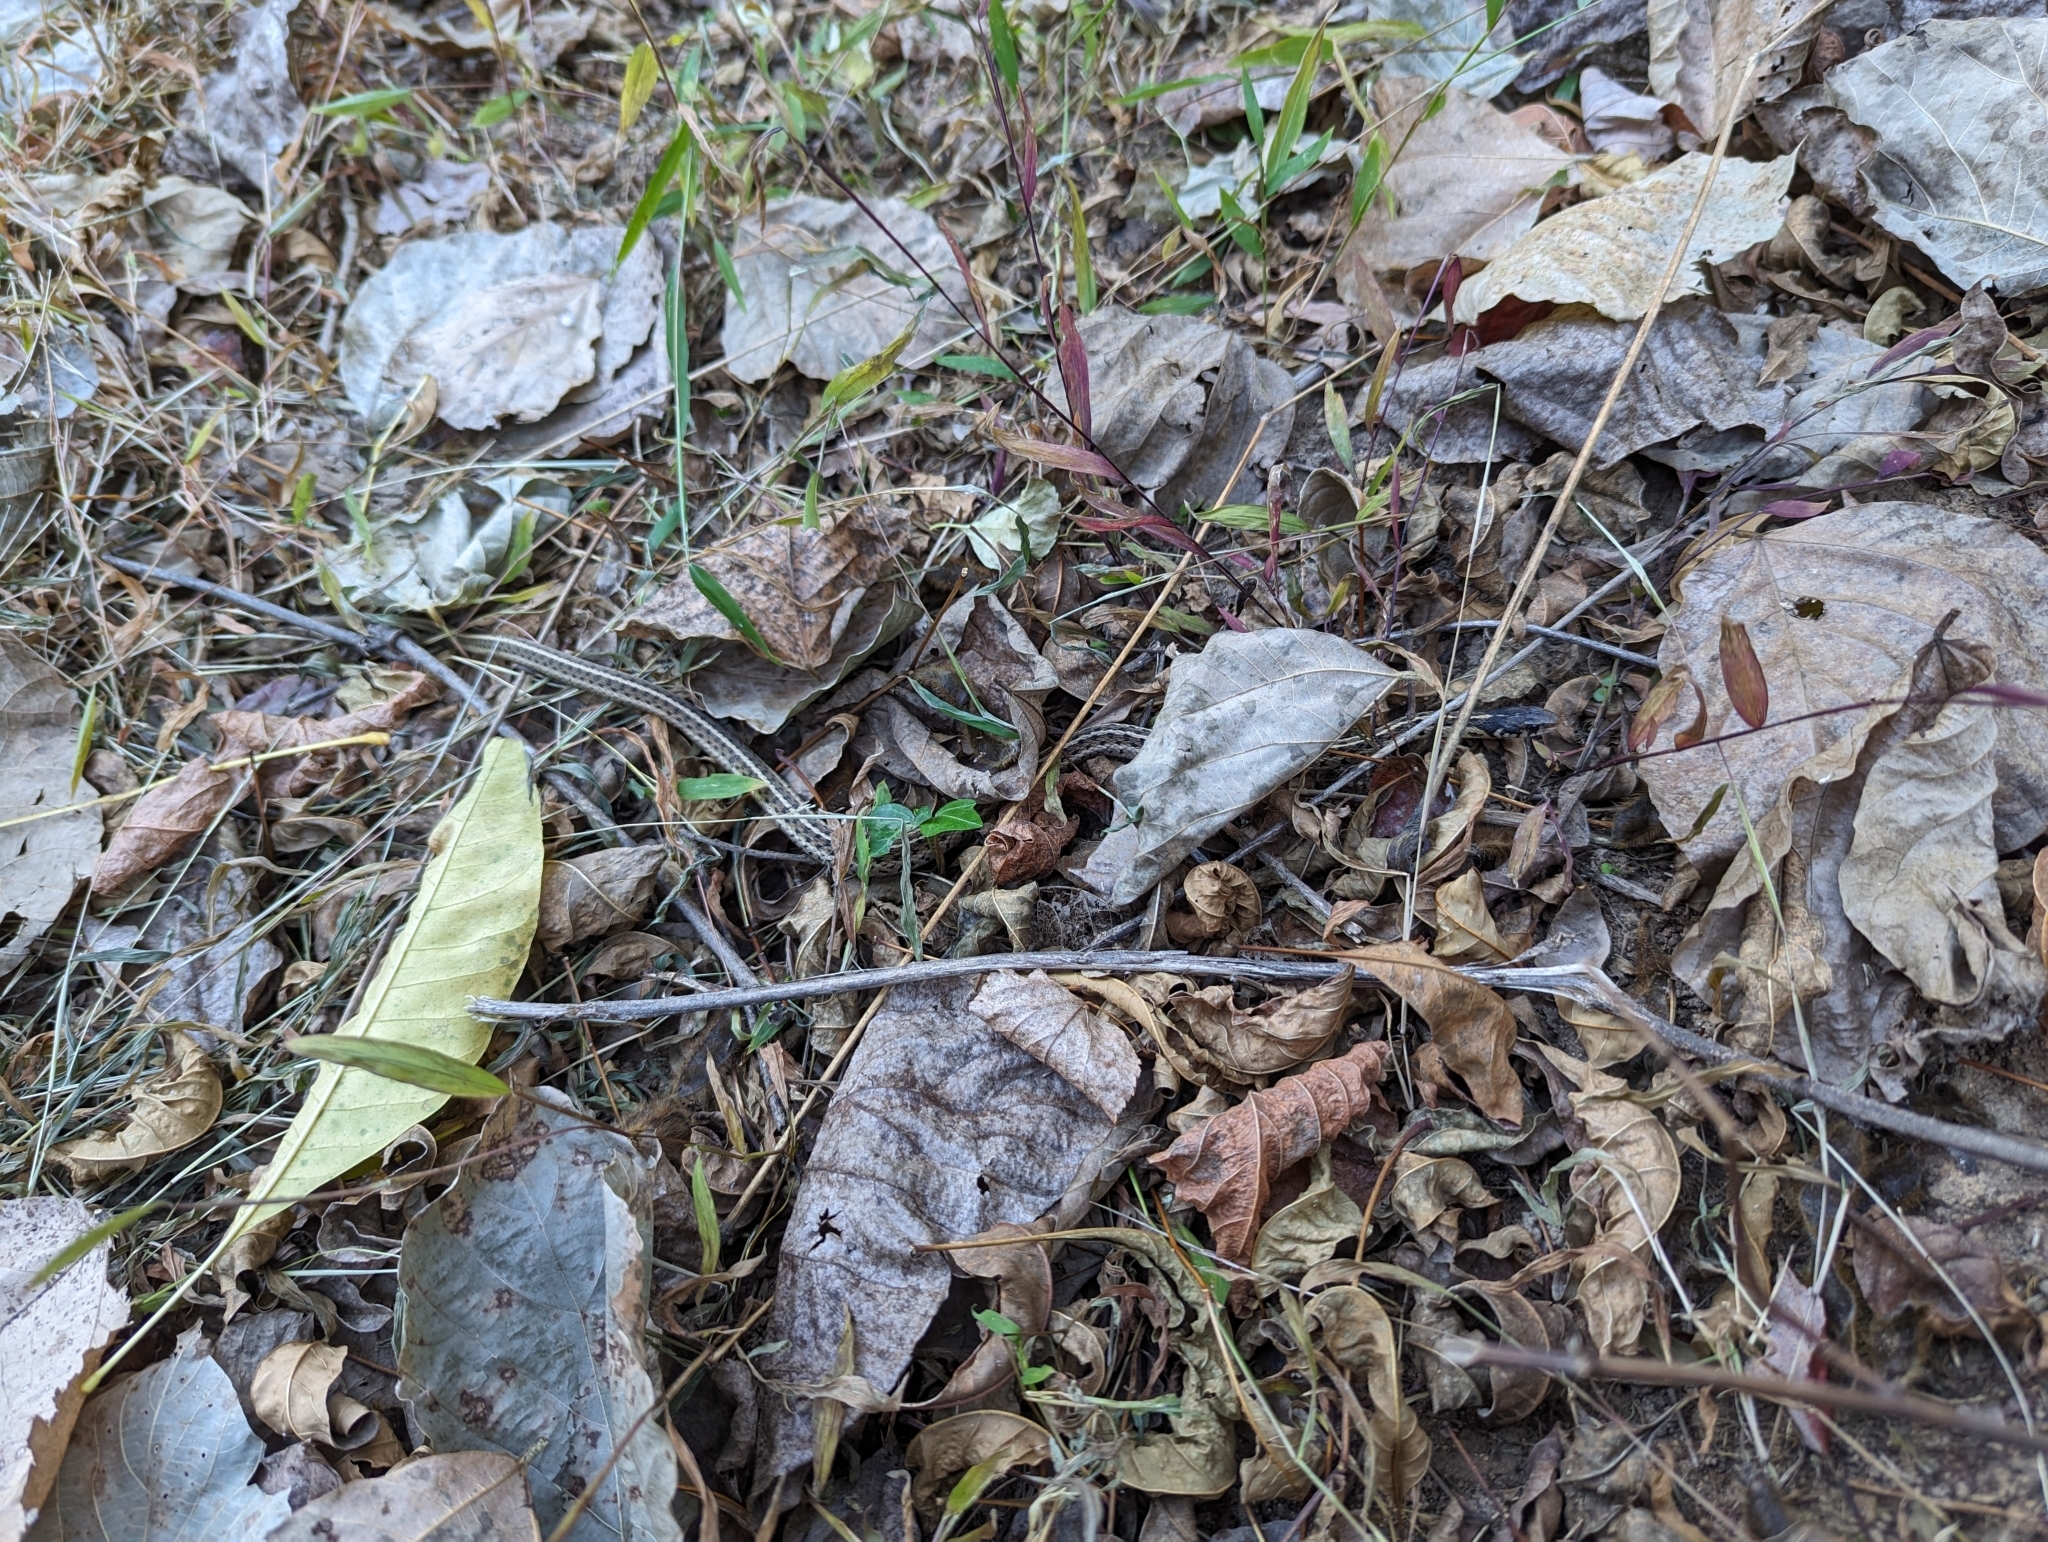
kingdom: Animalia
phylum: Chordata
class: Squamata
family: Colubridae
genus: Thamnophis
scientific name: Thamnophis sirtalis
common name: Common garter snake
